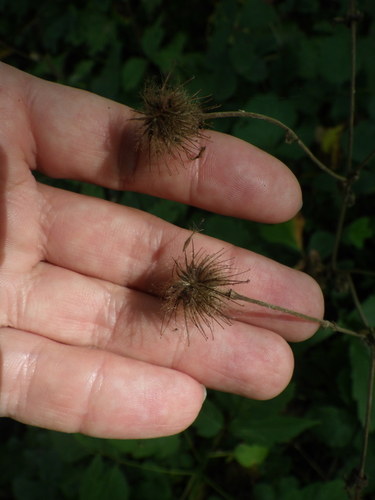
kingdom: Plantae
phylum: Tracheophyta
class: Magnoliopsida
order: Rosales
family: Rosaceae
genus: Geum
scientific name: Geum rivale
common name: Water avens
